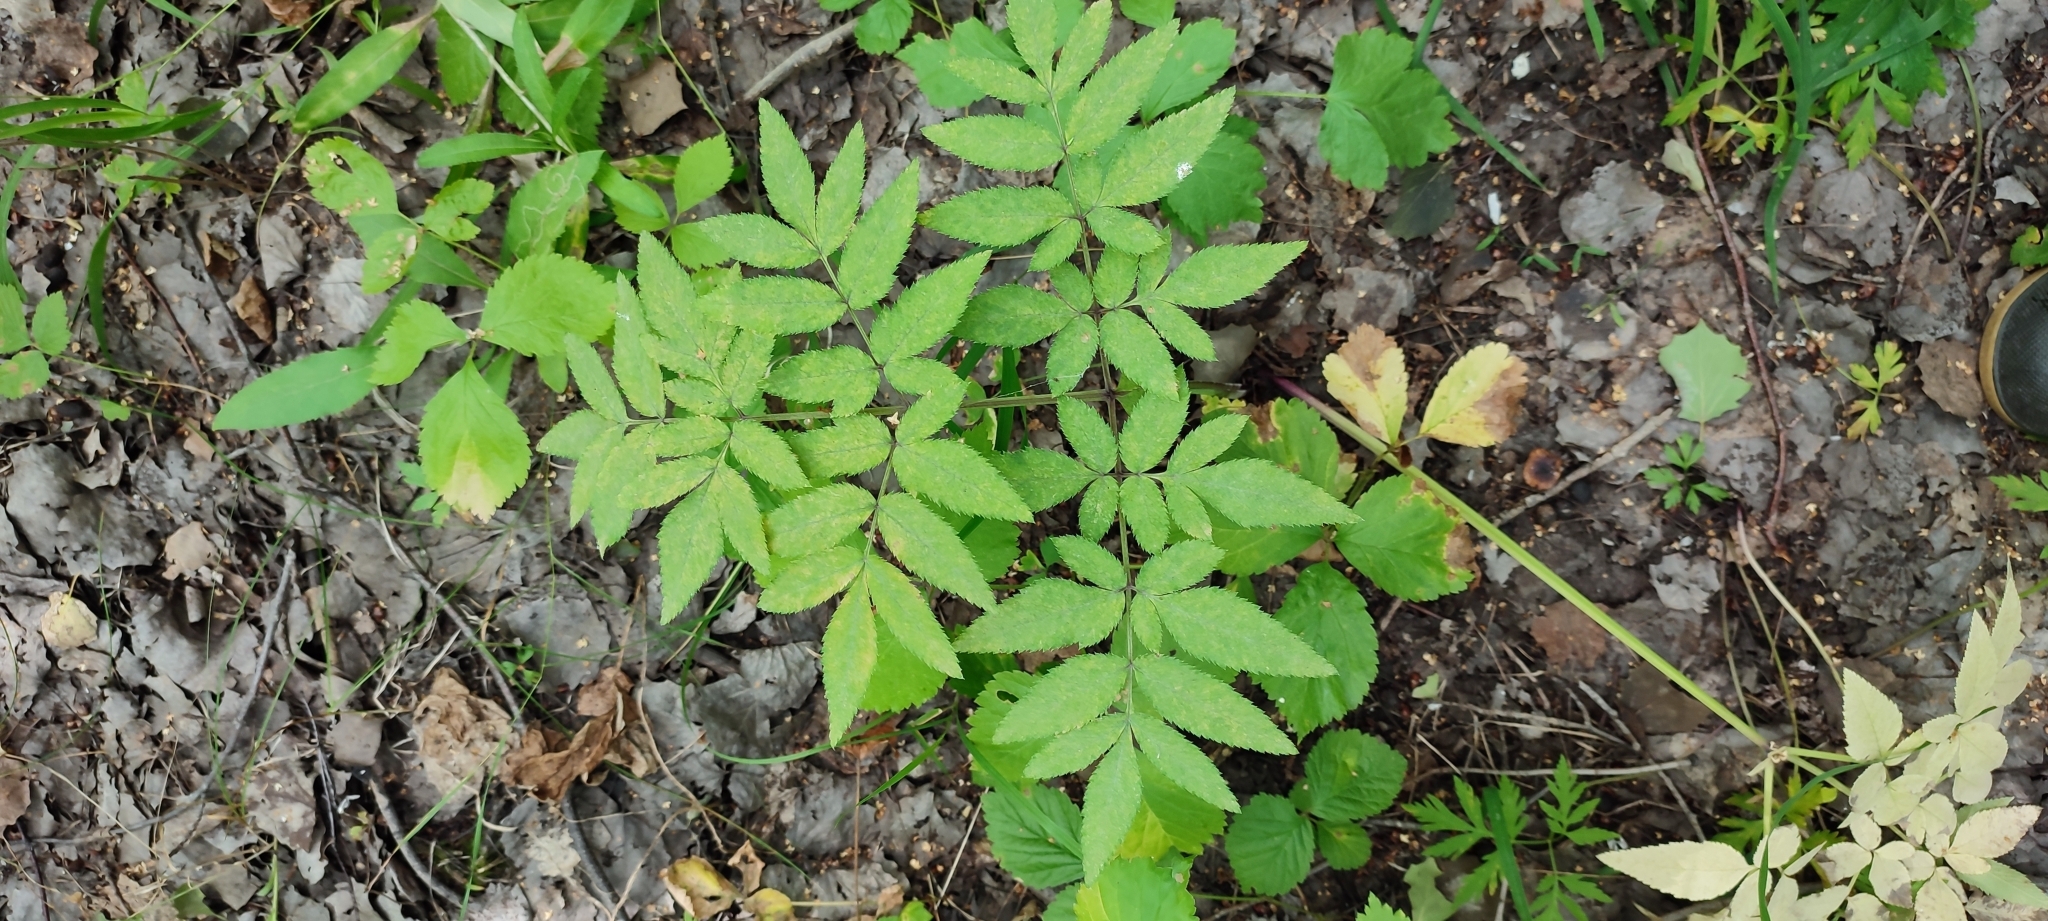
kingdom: Plantae
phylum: Tracheophyta
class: Magnoliopsida
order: Apiales
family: Apiaceae
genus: Angelica
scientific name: Angelica sylvestris
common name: Wild angelica
